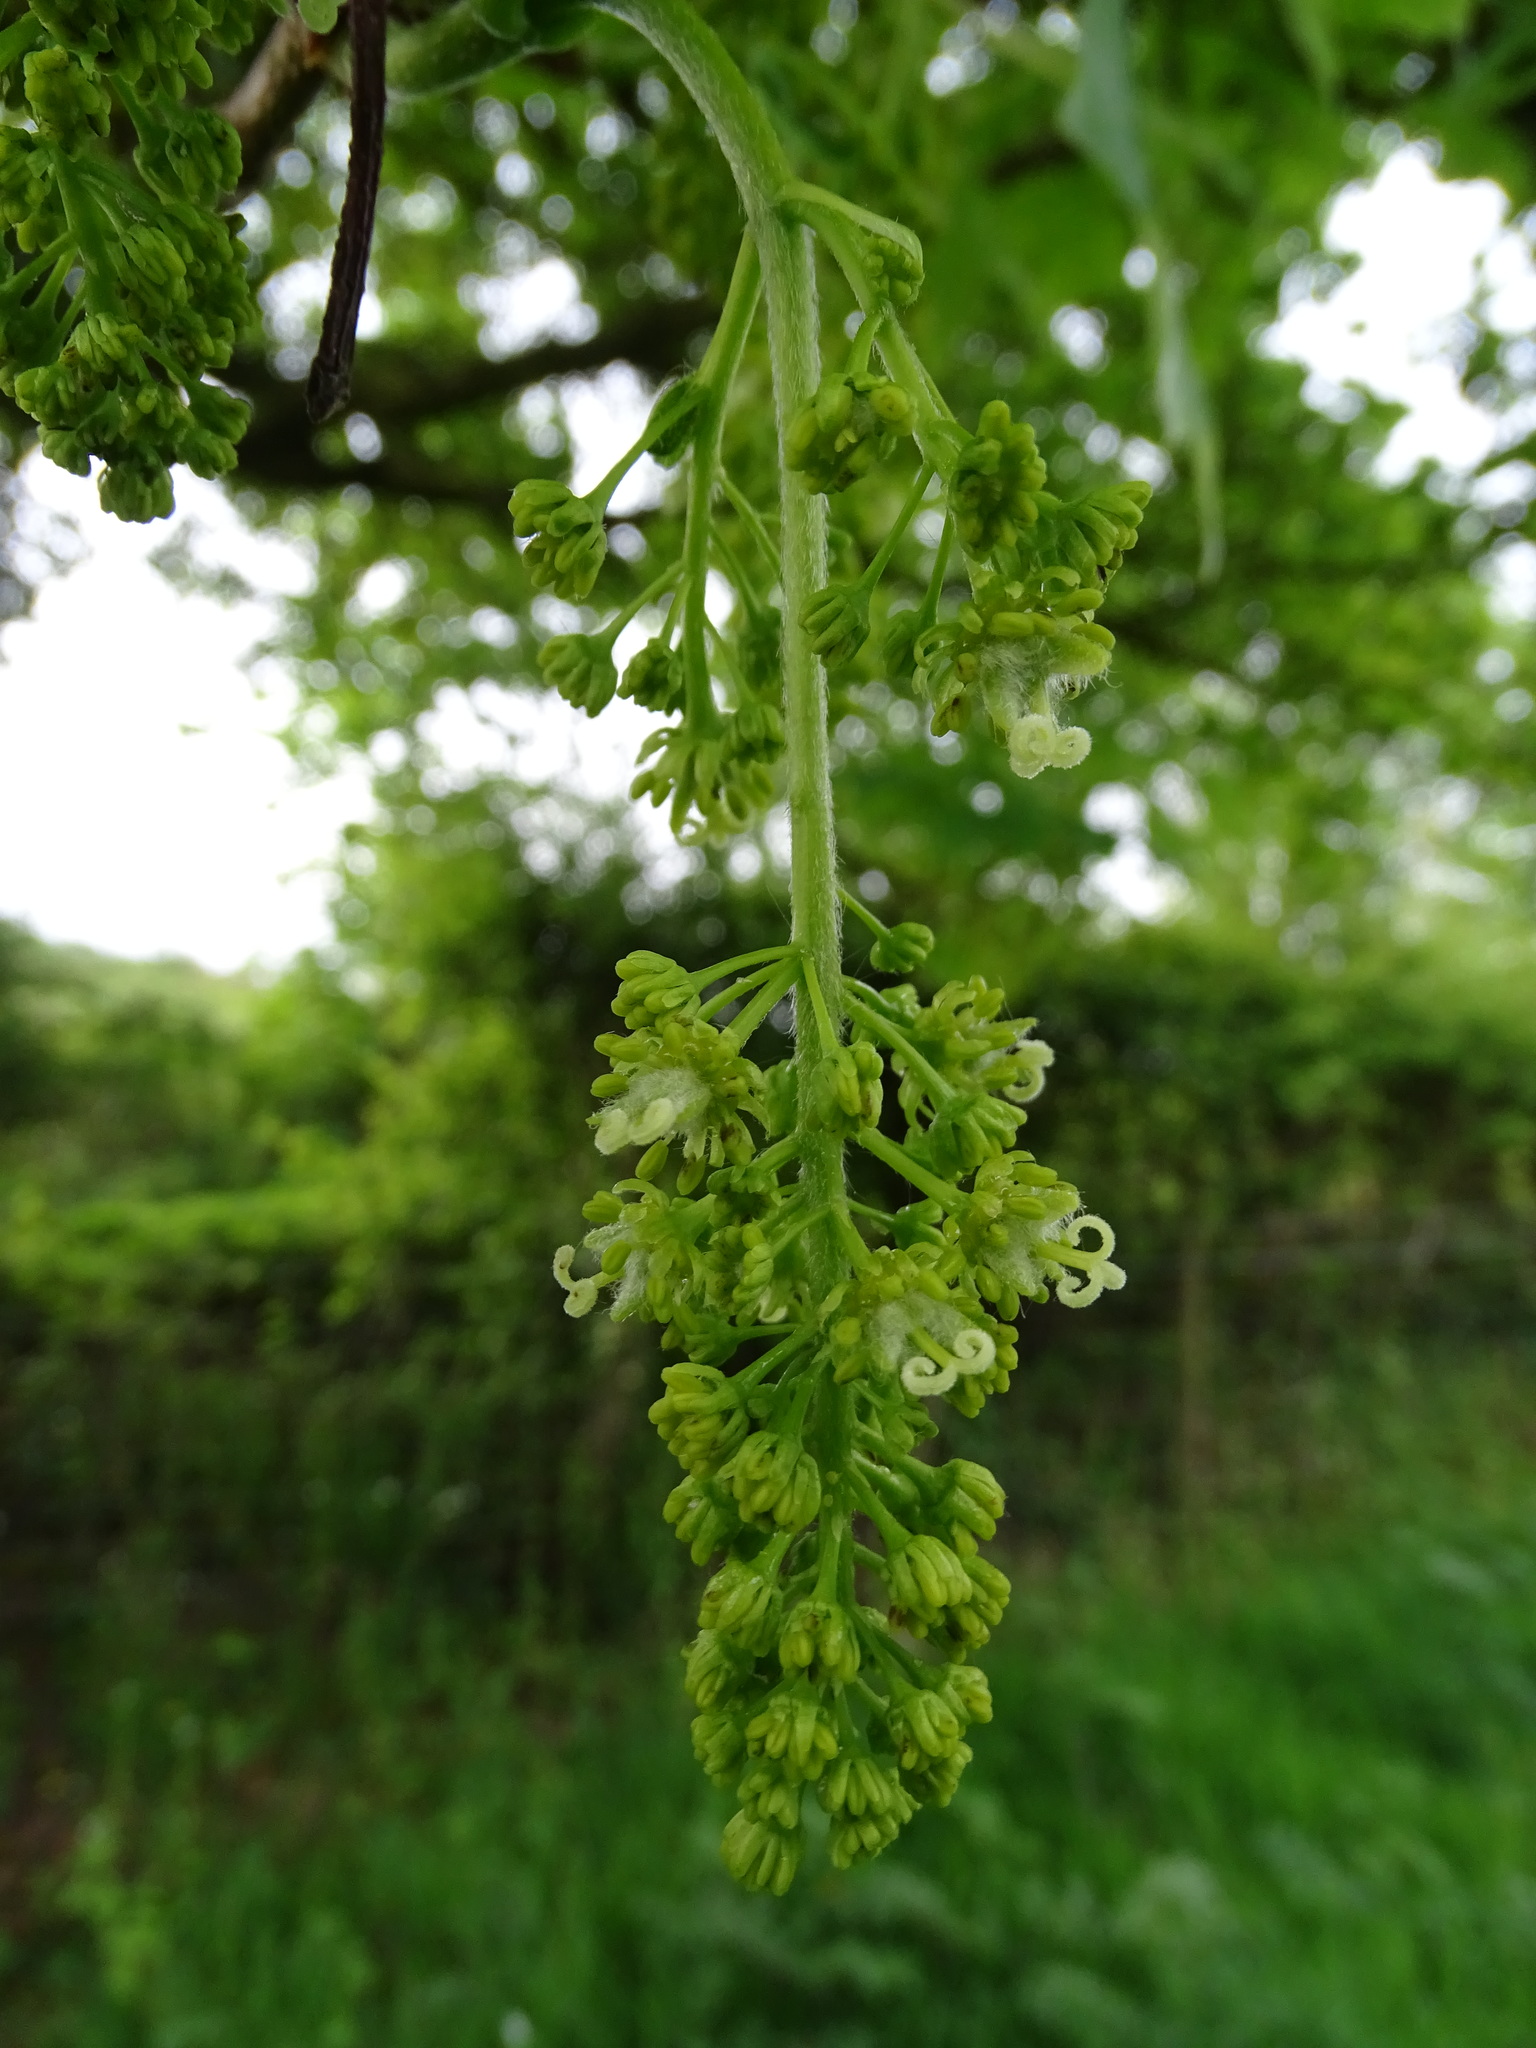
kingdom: Plantae
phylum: Tracheophyta
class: Magnoliopsida
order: Sapindales
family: Sapindaceae
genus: Acer
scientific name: Acer pseudoplatanus
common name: Sycamore
